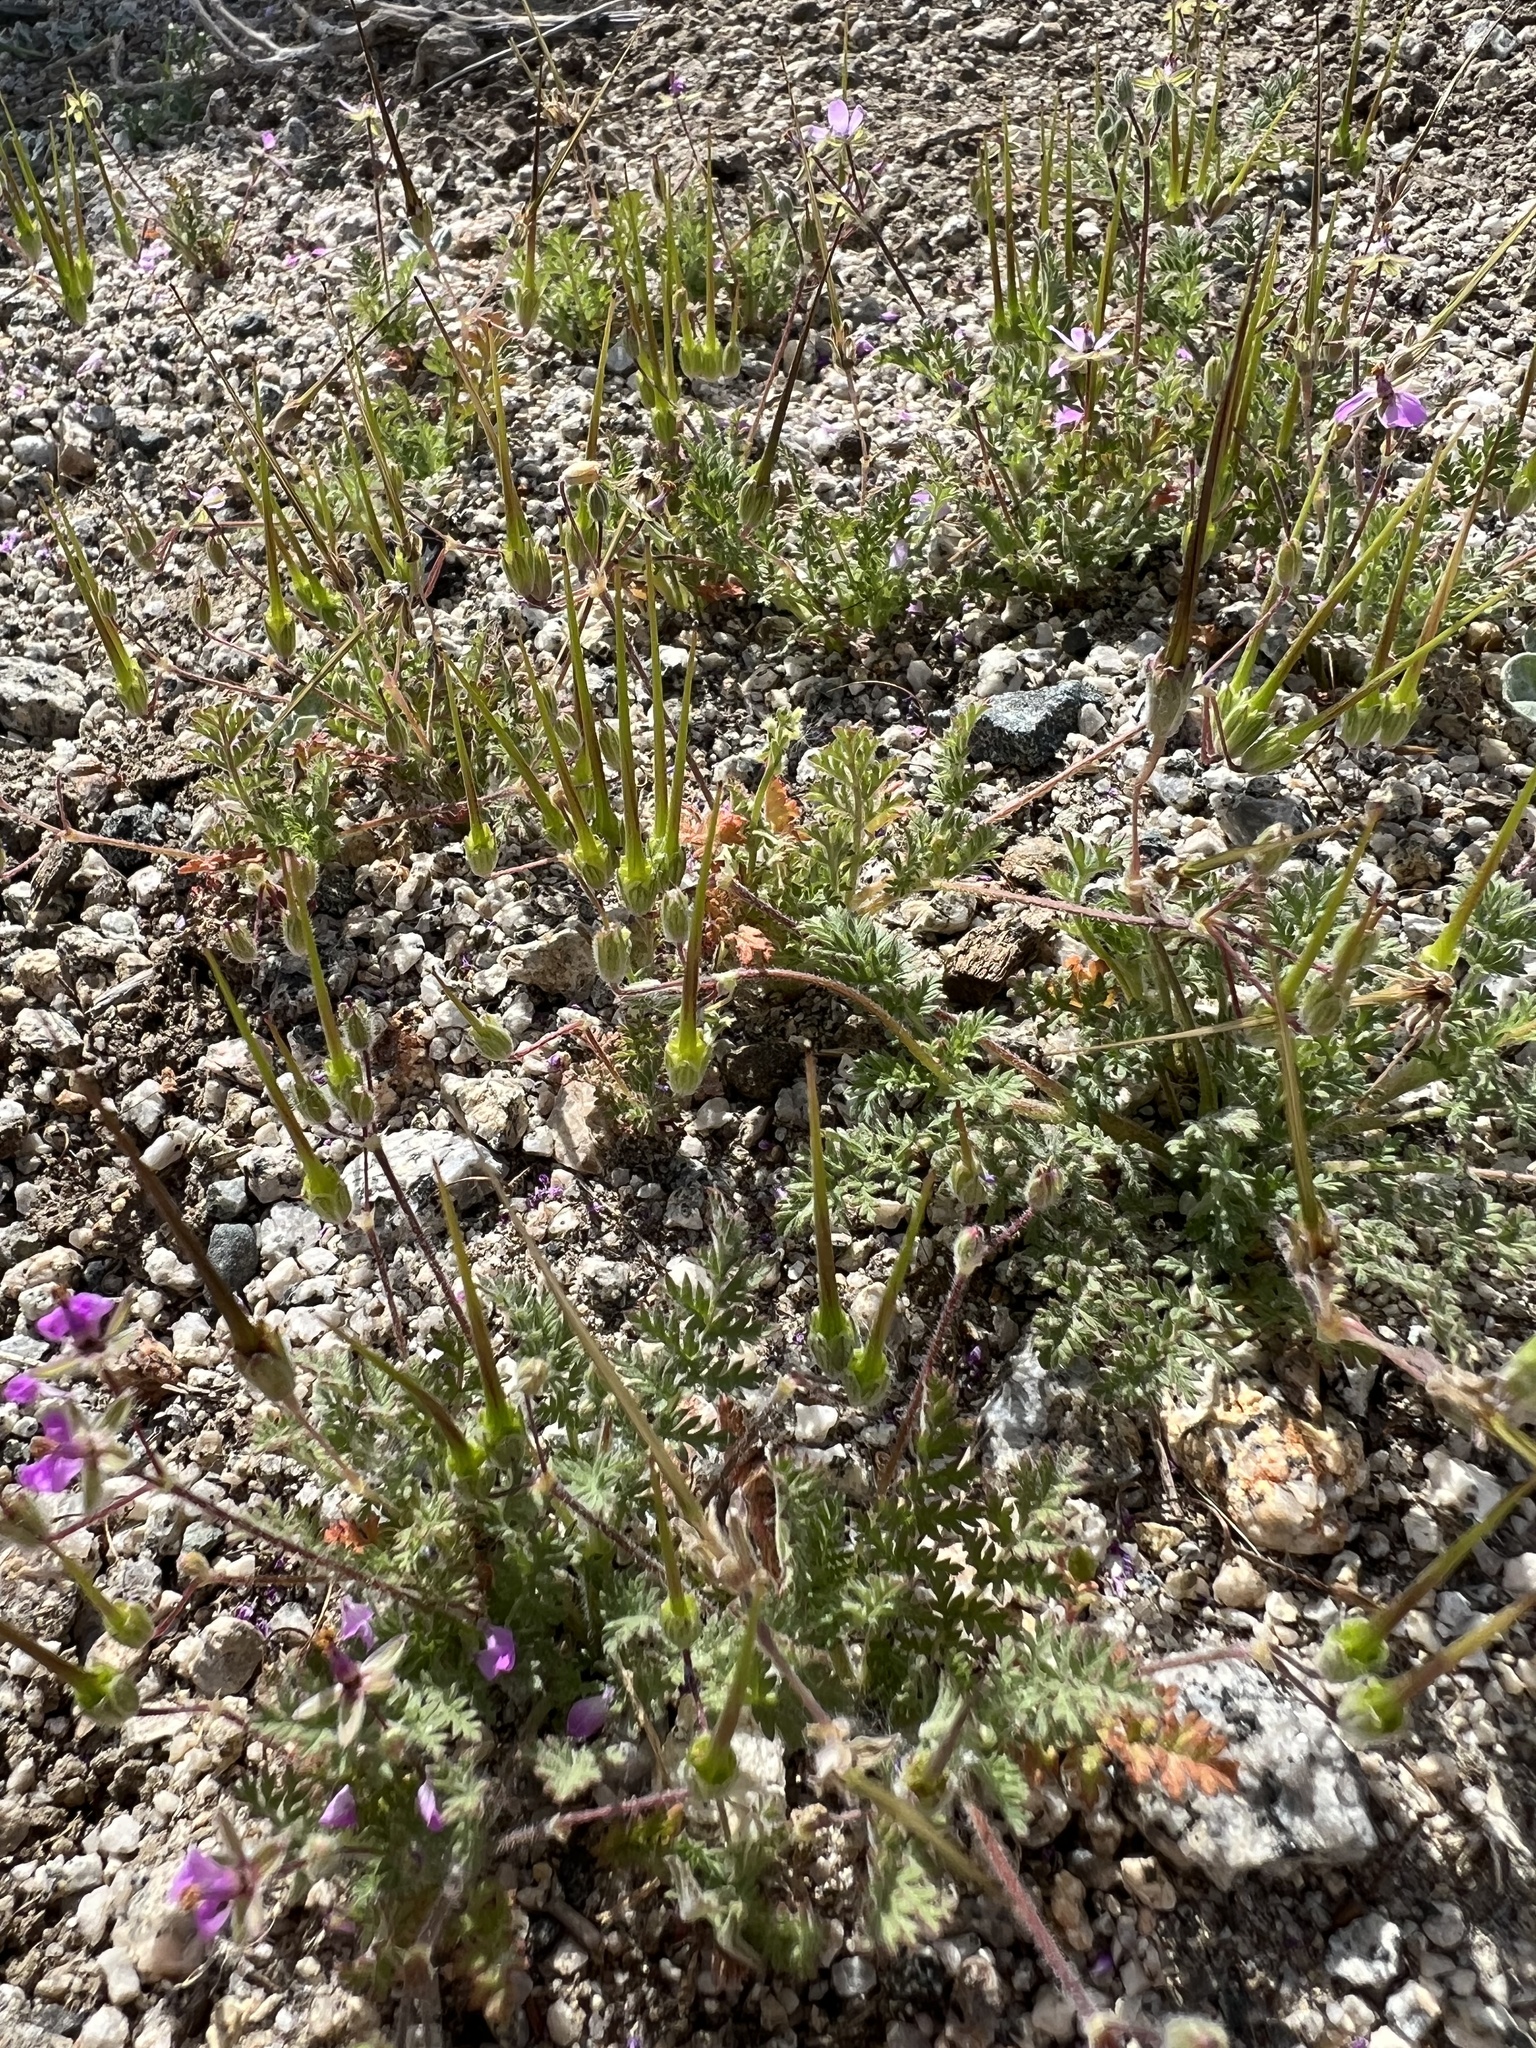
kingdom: Plantae
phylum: Tracheophyta
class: Magnoliopsida
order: Geraniales
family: Geraniaceae
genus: Erodium
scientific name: Erodium cicutarium
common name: Common stork's-bill
